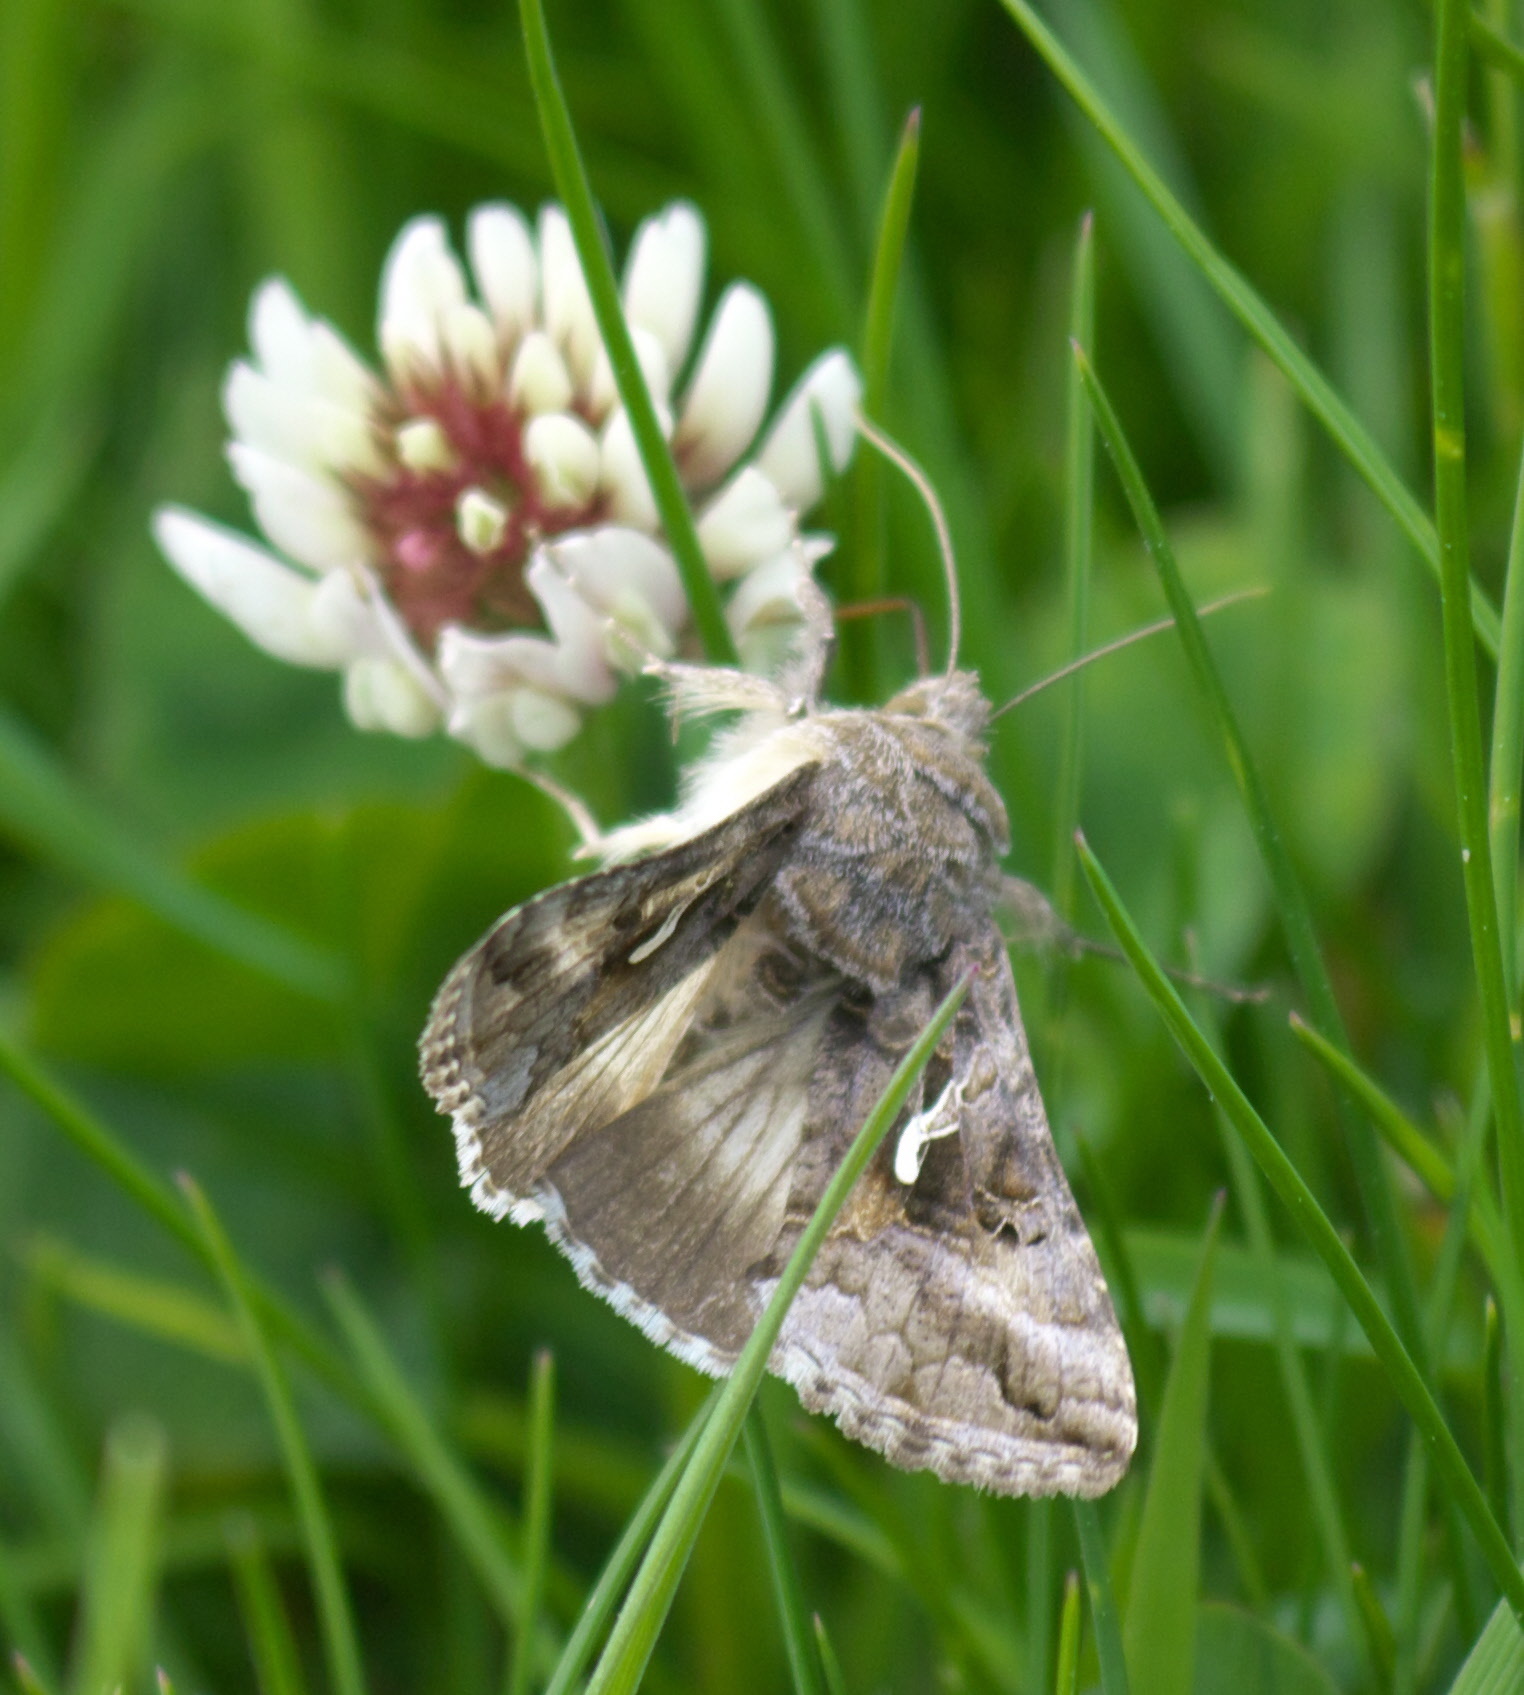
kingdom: Animalia
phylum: Arthropoda
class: Insecta
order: Lepidoptera
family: Noctuidae
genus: Autographa
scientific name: Autographa gamma
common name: Silver y
